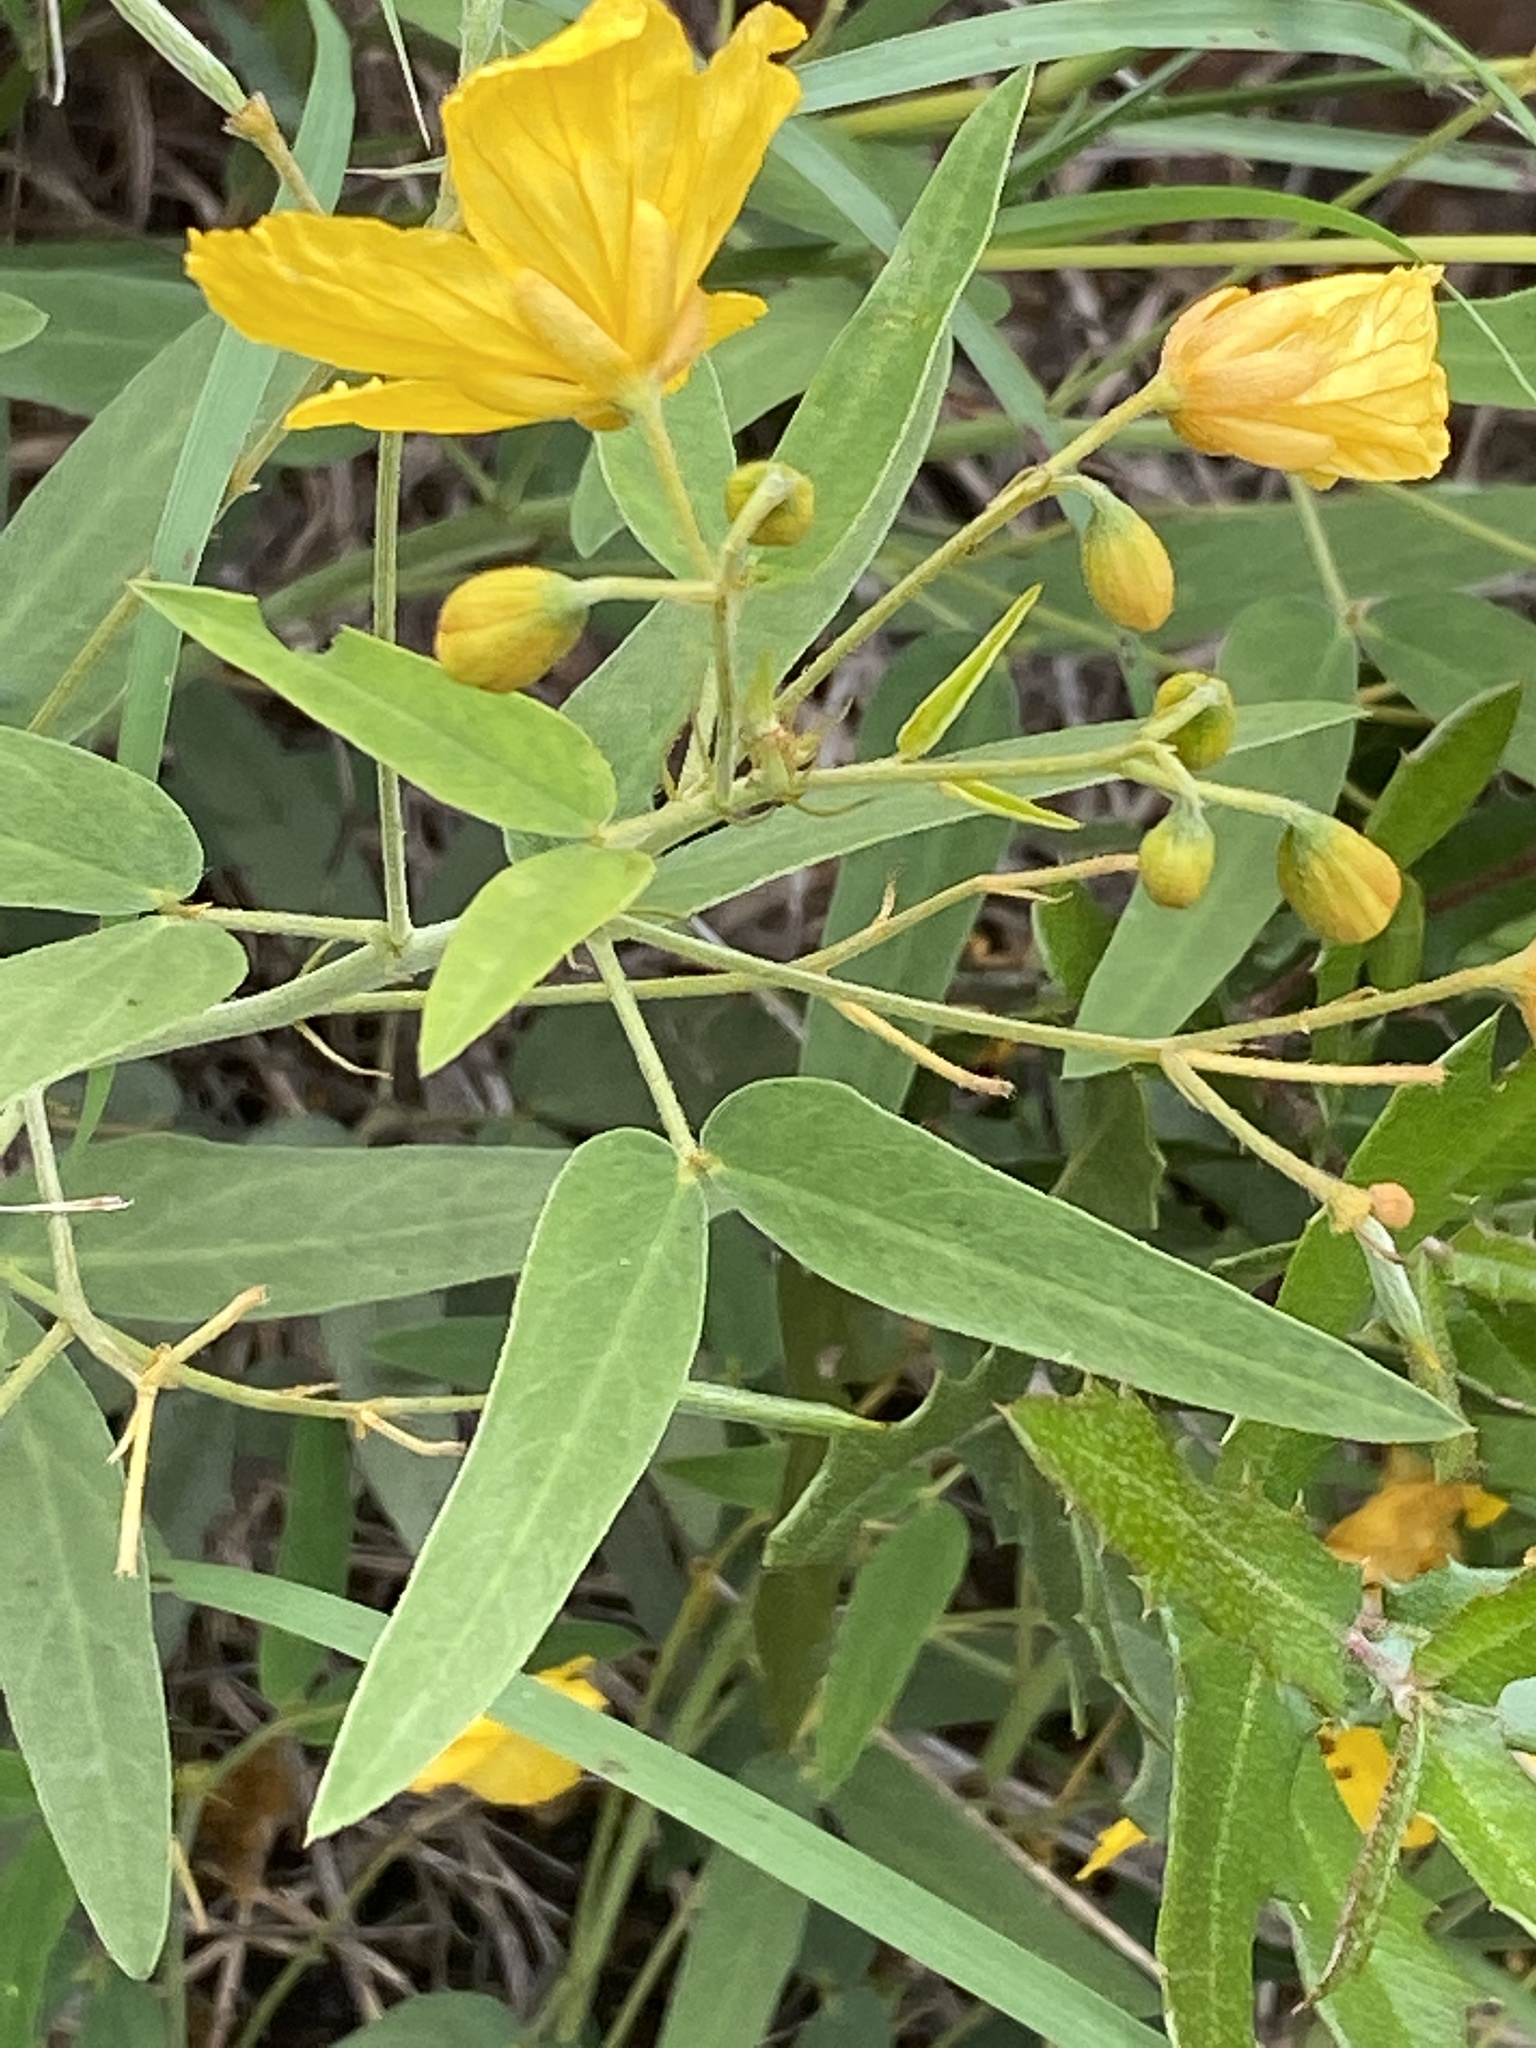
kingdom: Plantae
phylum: Tracheophyta
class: Magnoliopsida
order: Fabales
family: Fabaceae
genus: Senna
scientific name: Senna roemeriana
